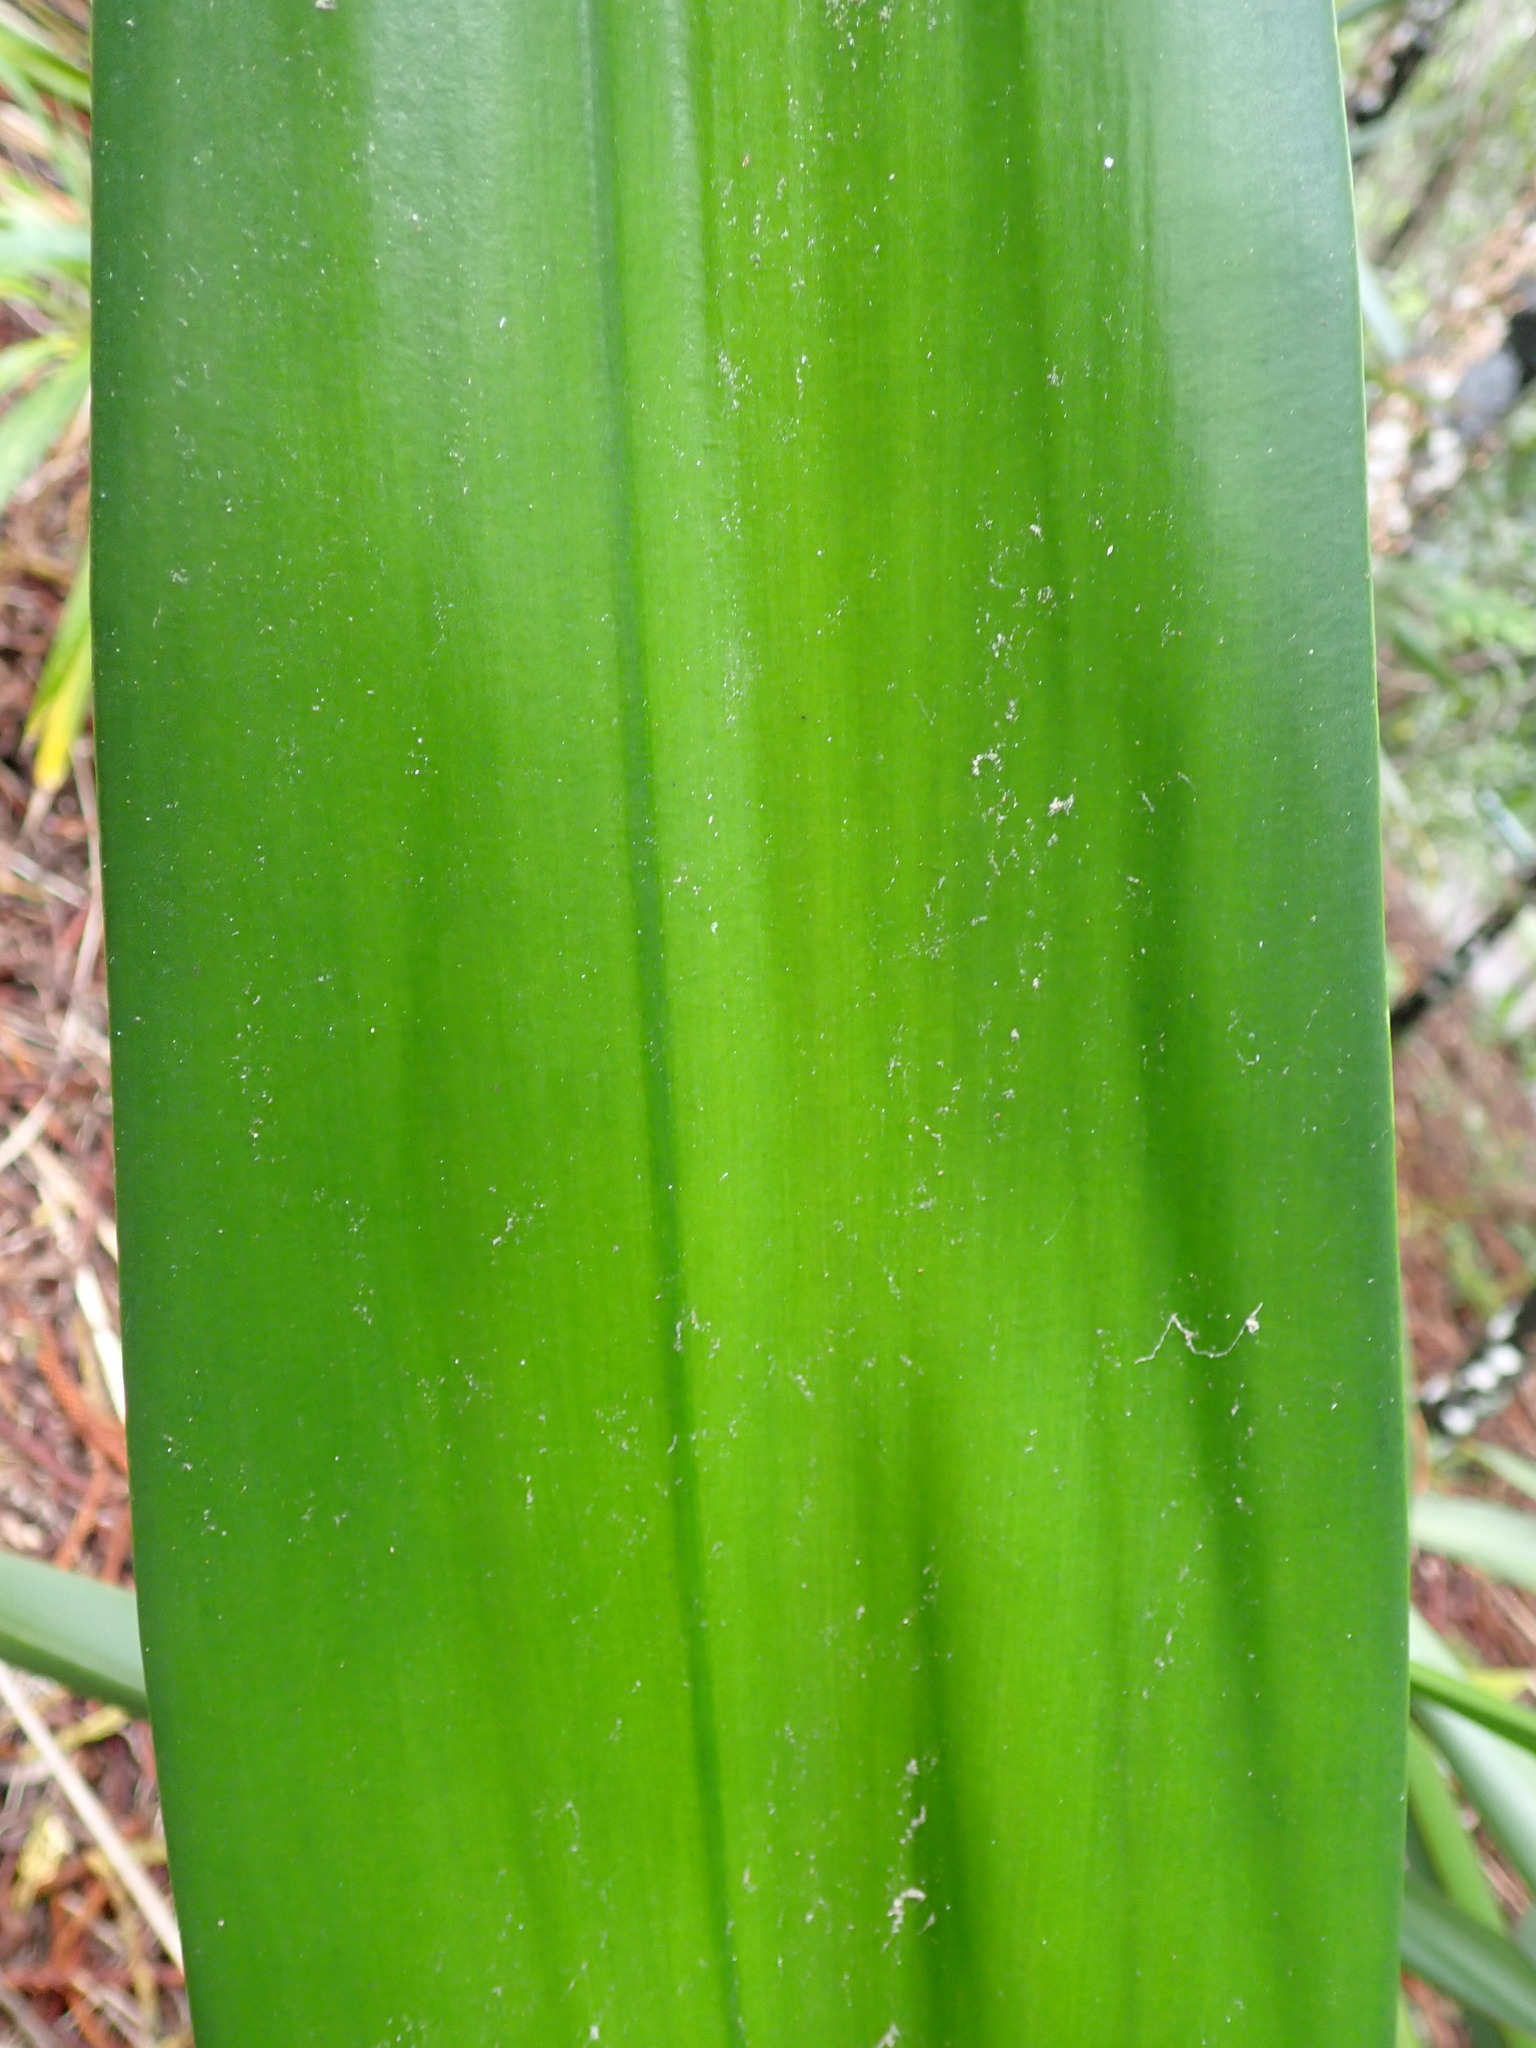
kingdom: Plantae
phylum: Tracheophyta
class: Liliopsida
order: Asparagales
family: Asparagaceae
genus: Furcraea
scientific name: Furcraea foetida
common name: Mauritius hemp
